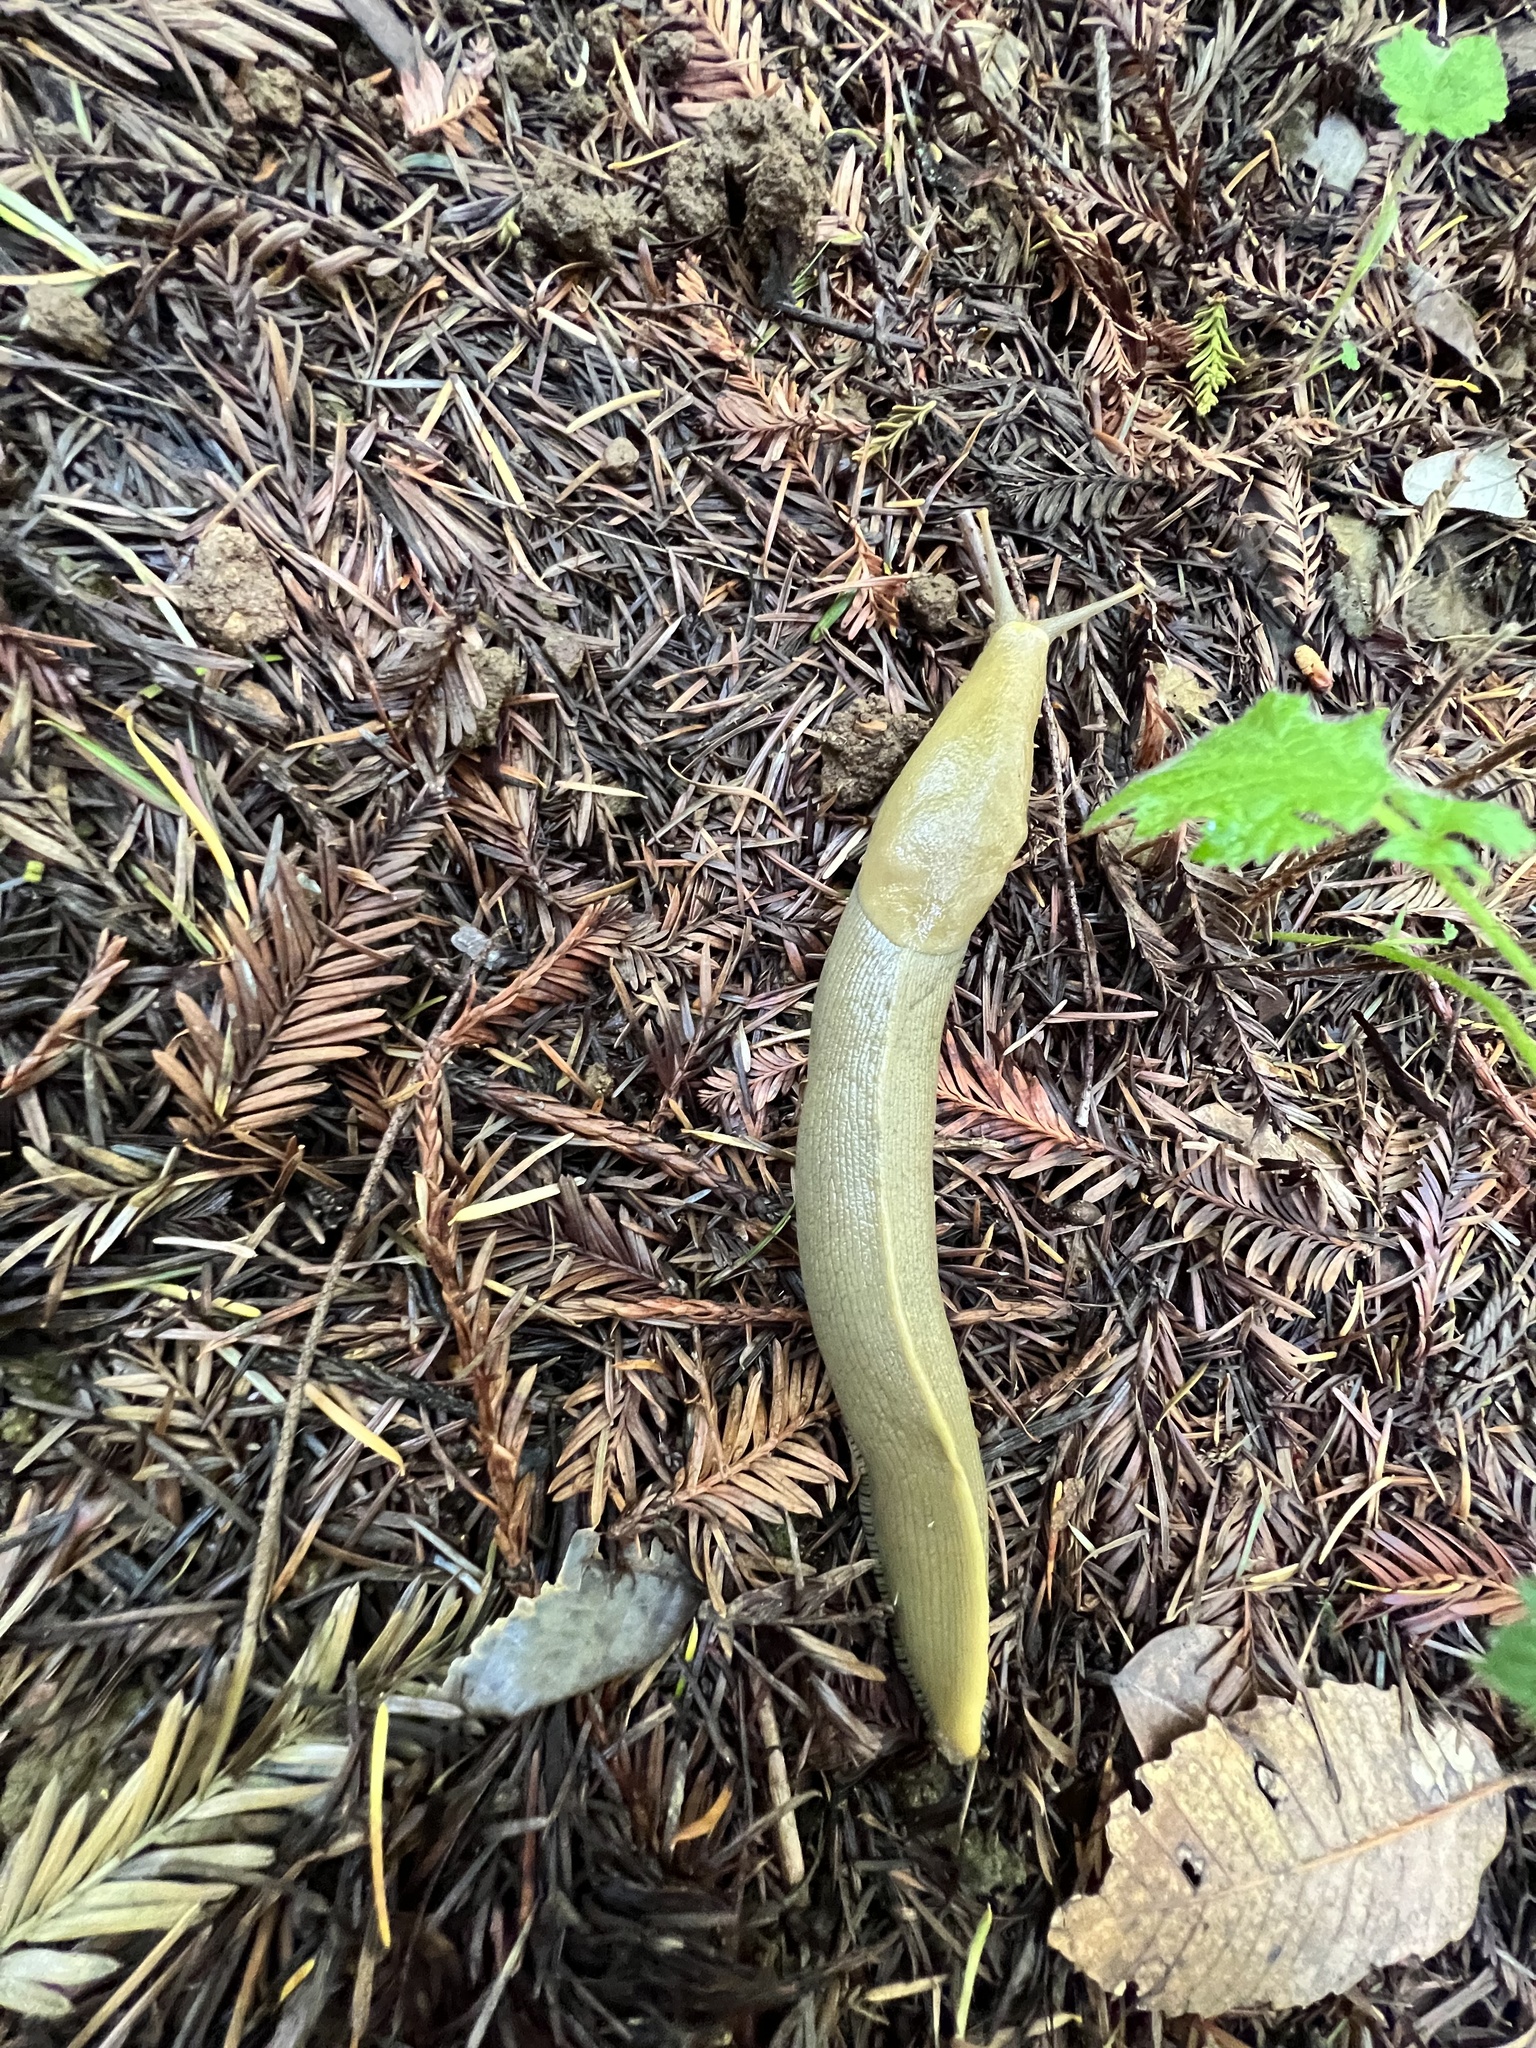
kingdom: Animalia
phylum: Mollusca
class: Gastropoda
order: Stylommatophora
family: Ariolimacidae
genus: Ariolimax
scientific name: Ariolimax buttoni
